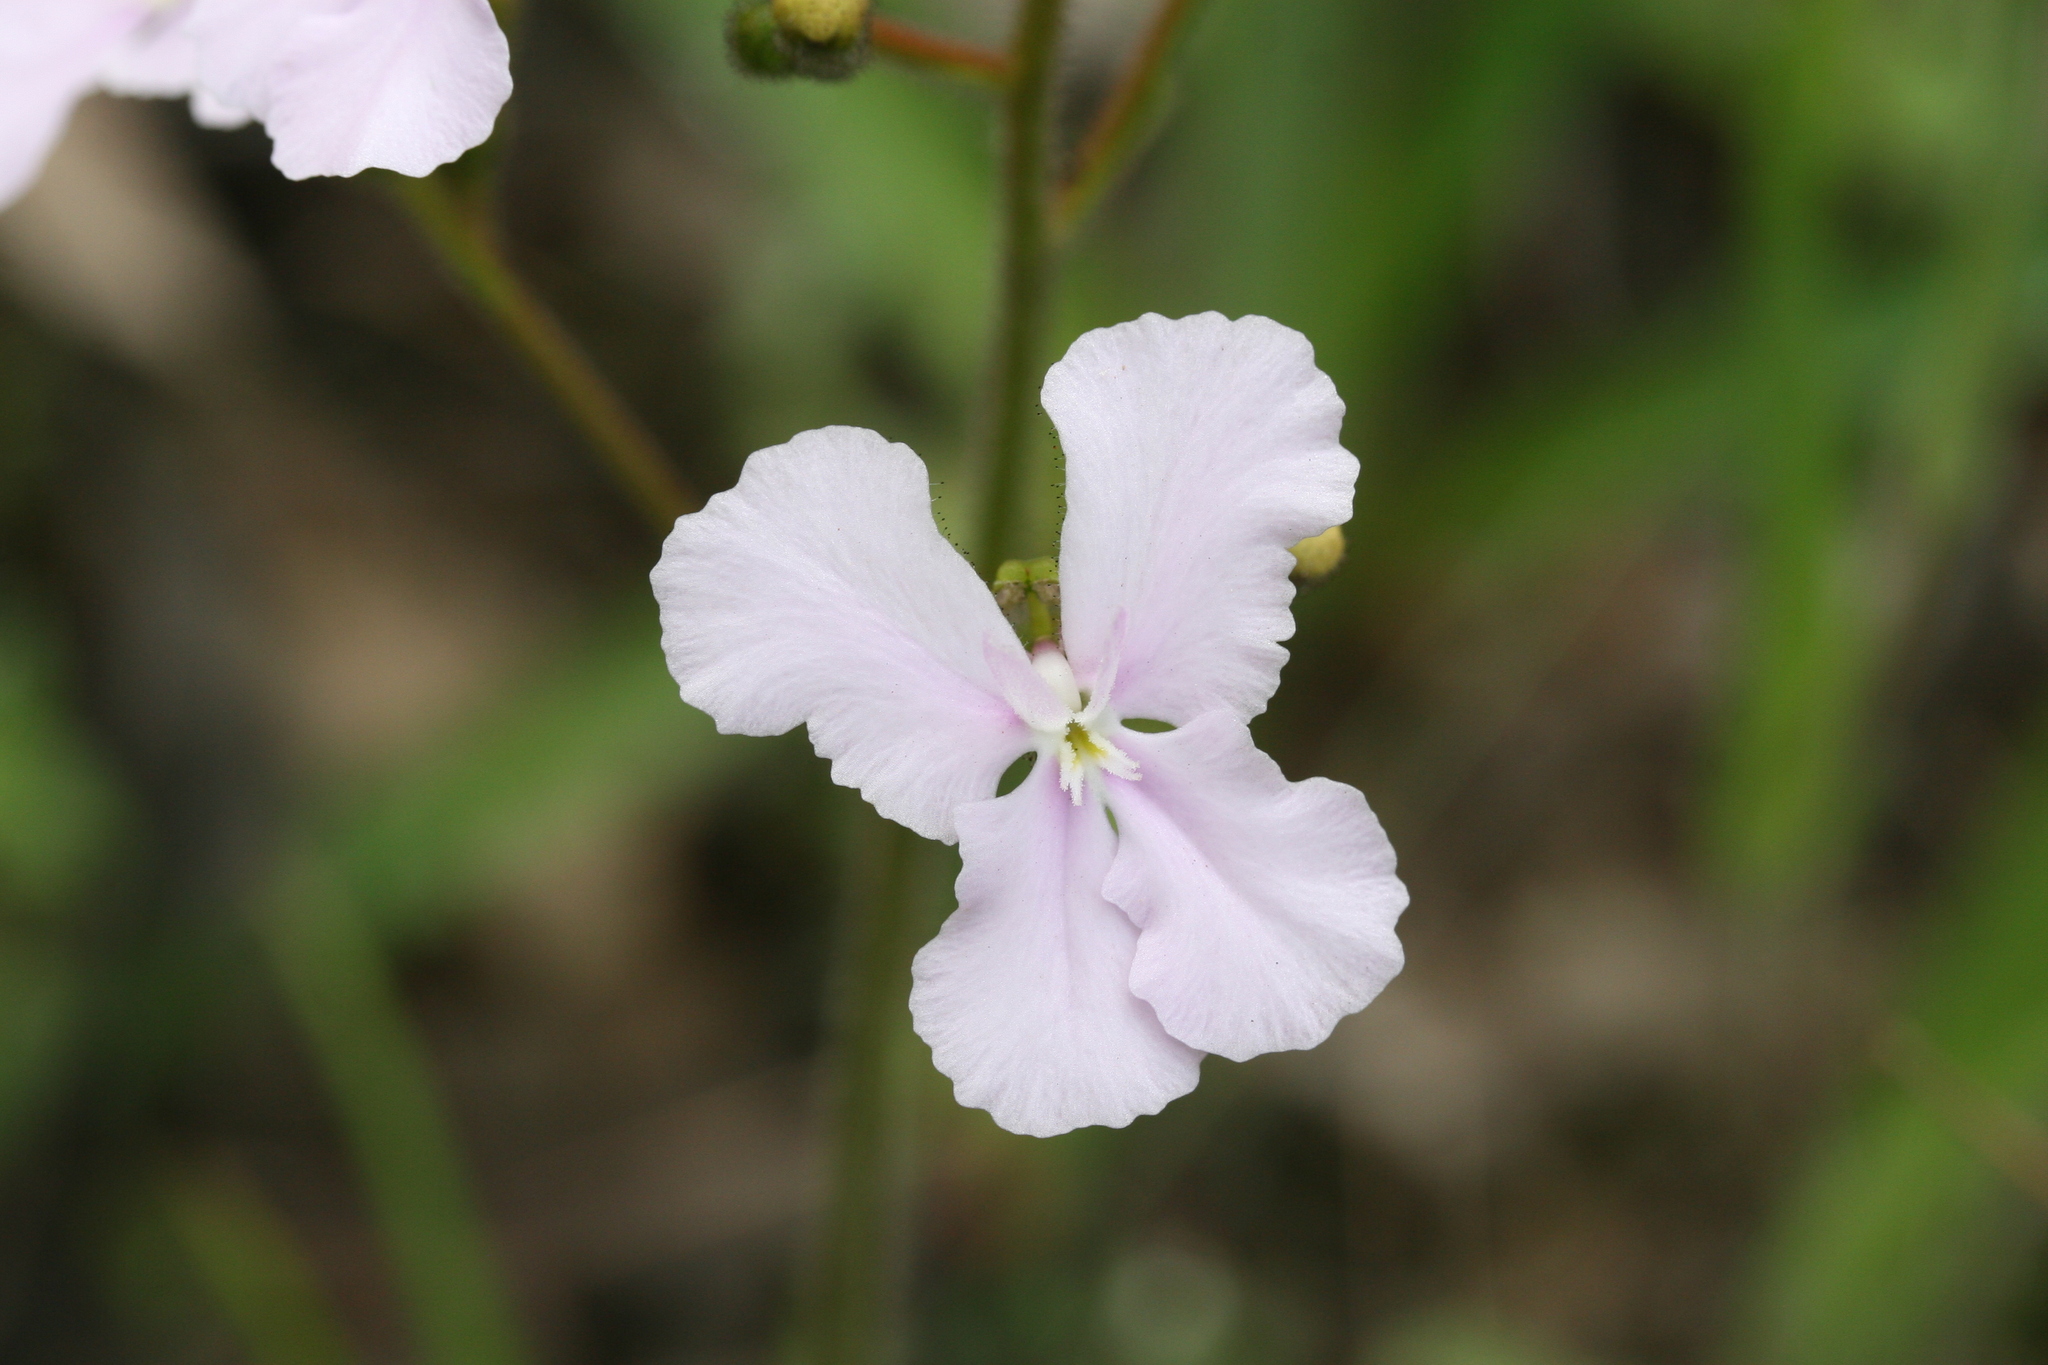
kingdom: Plantae
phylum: Tracheophyta
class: Magnoliopsida
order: Asterales
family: Stylidiaceae
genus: Stylidium
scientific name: Stylidium affine
